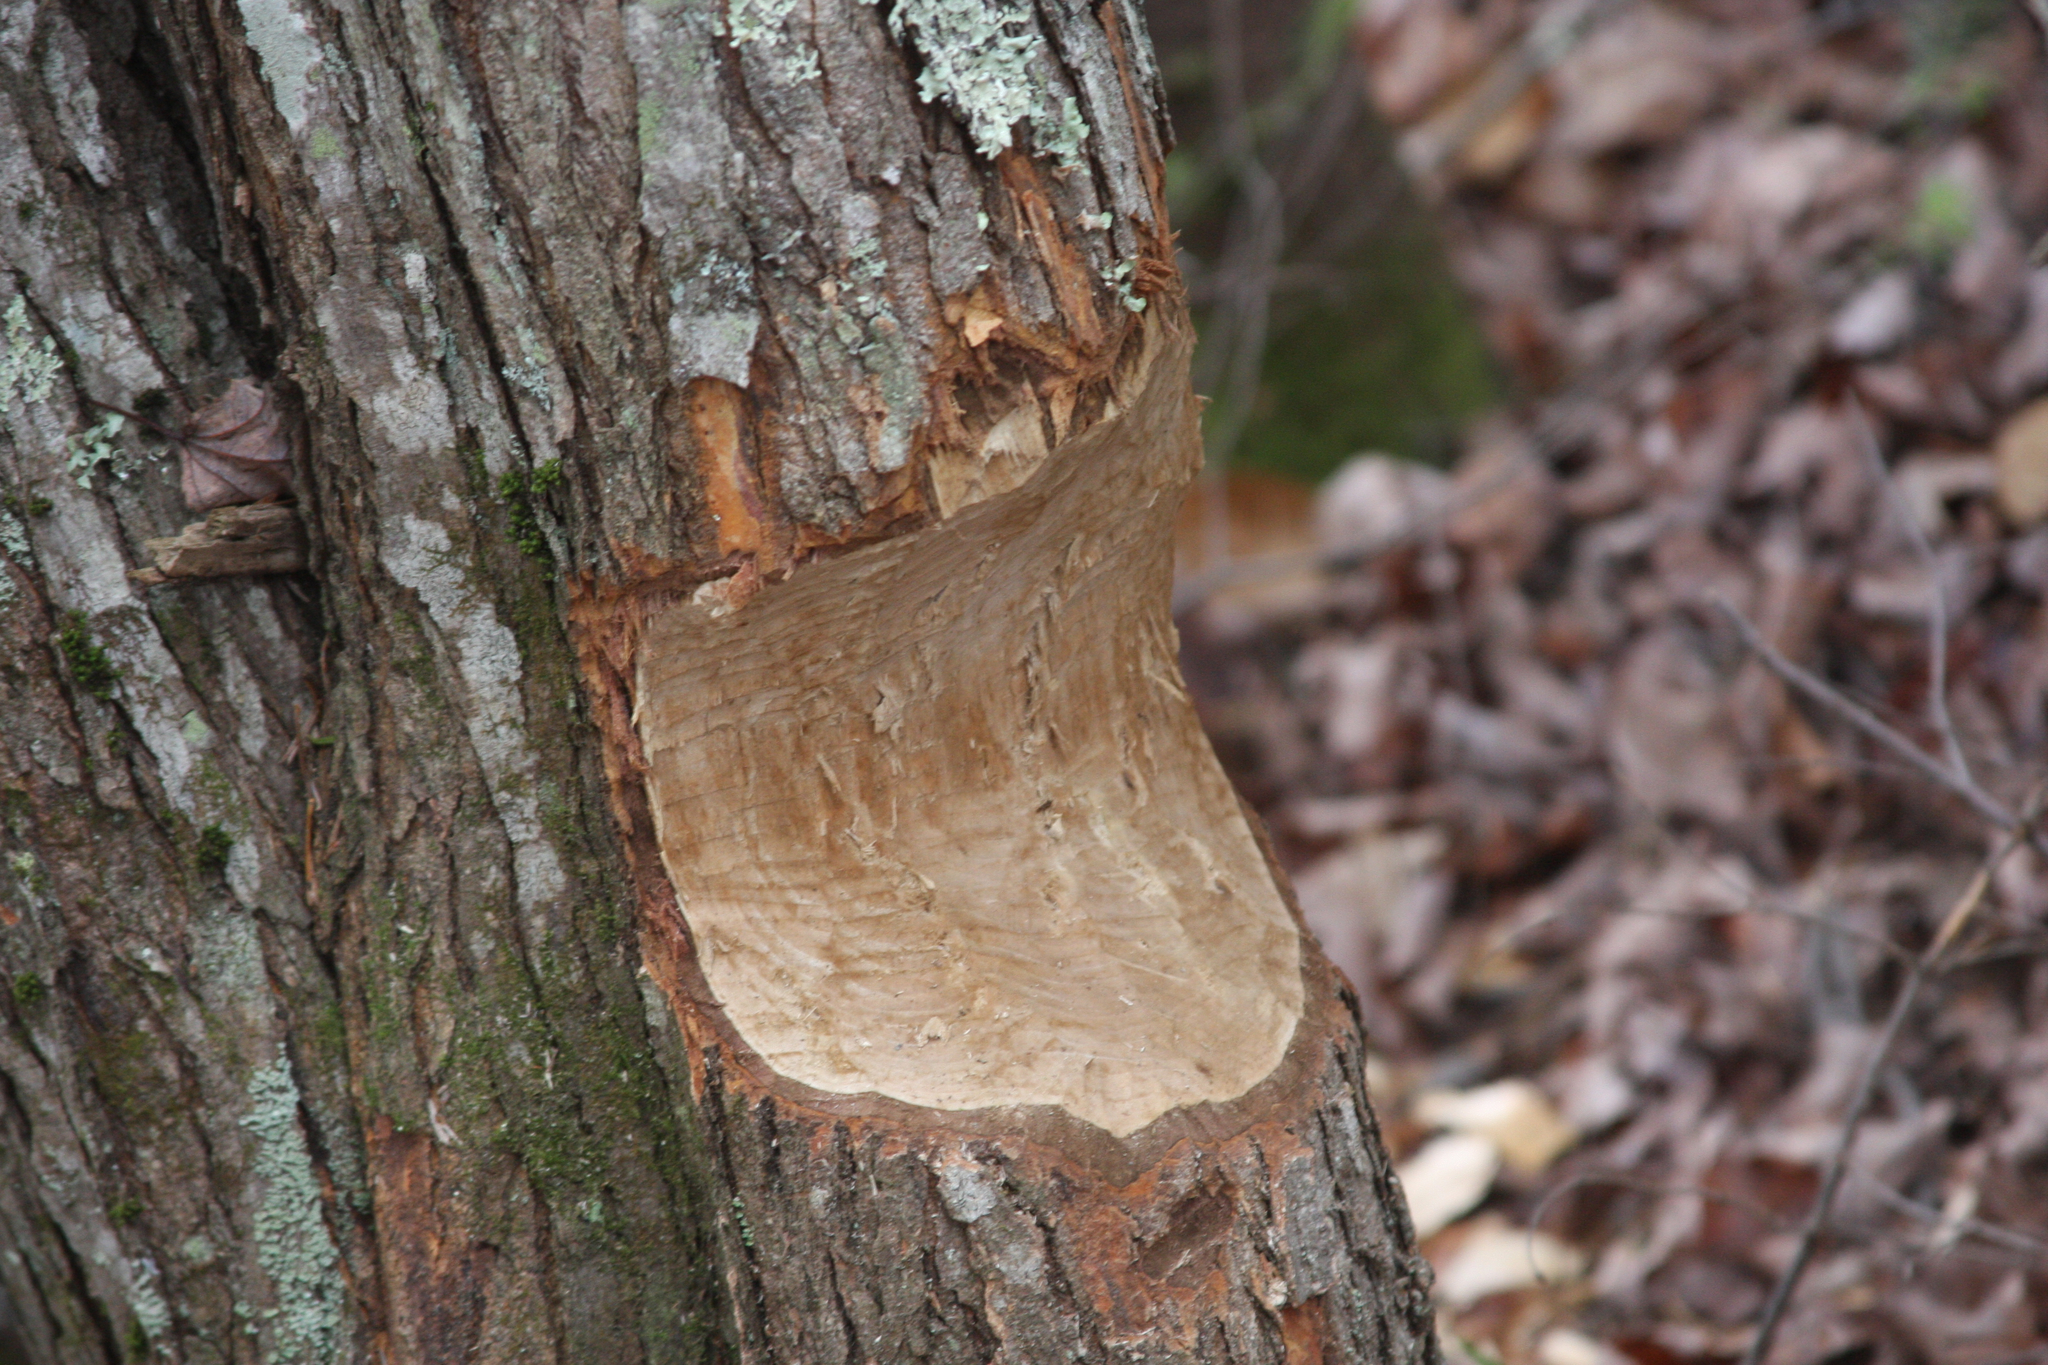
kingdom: Animalia
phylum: Chordata
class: Mammalia
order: Rodentia
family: Castoridae
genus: Castor
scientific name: Castor canadensis
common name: American beaver
